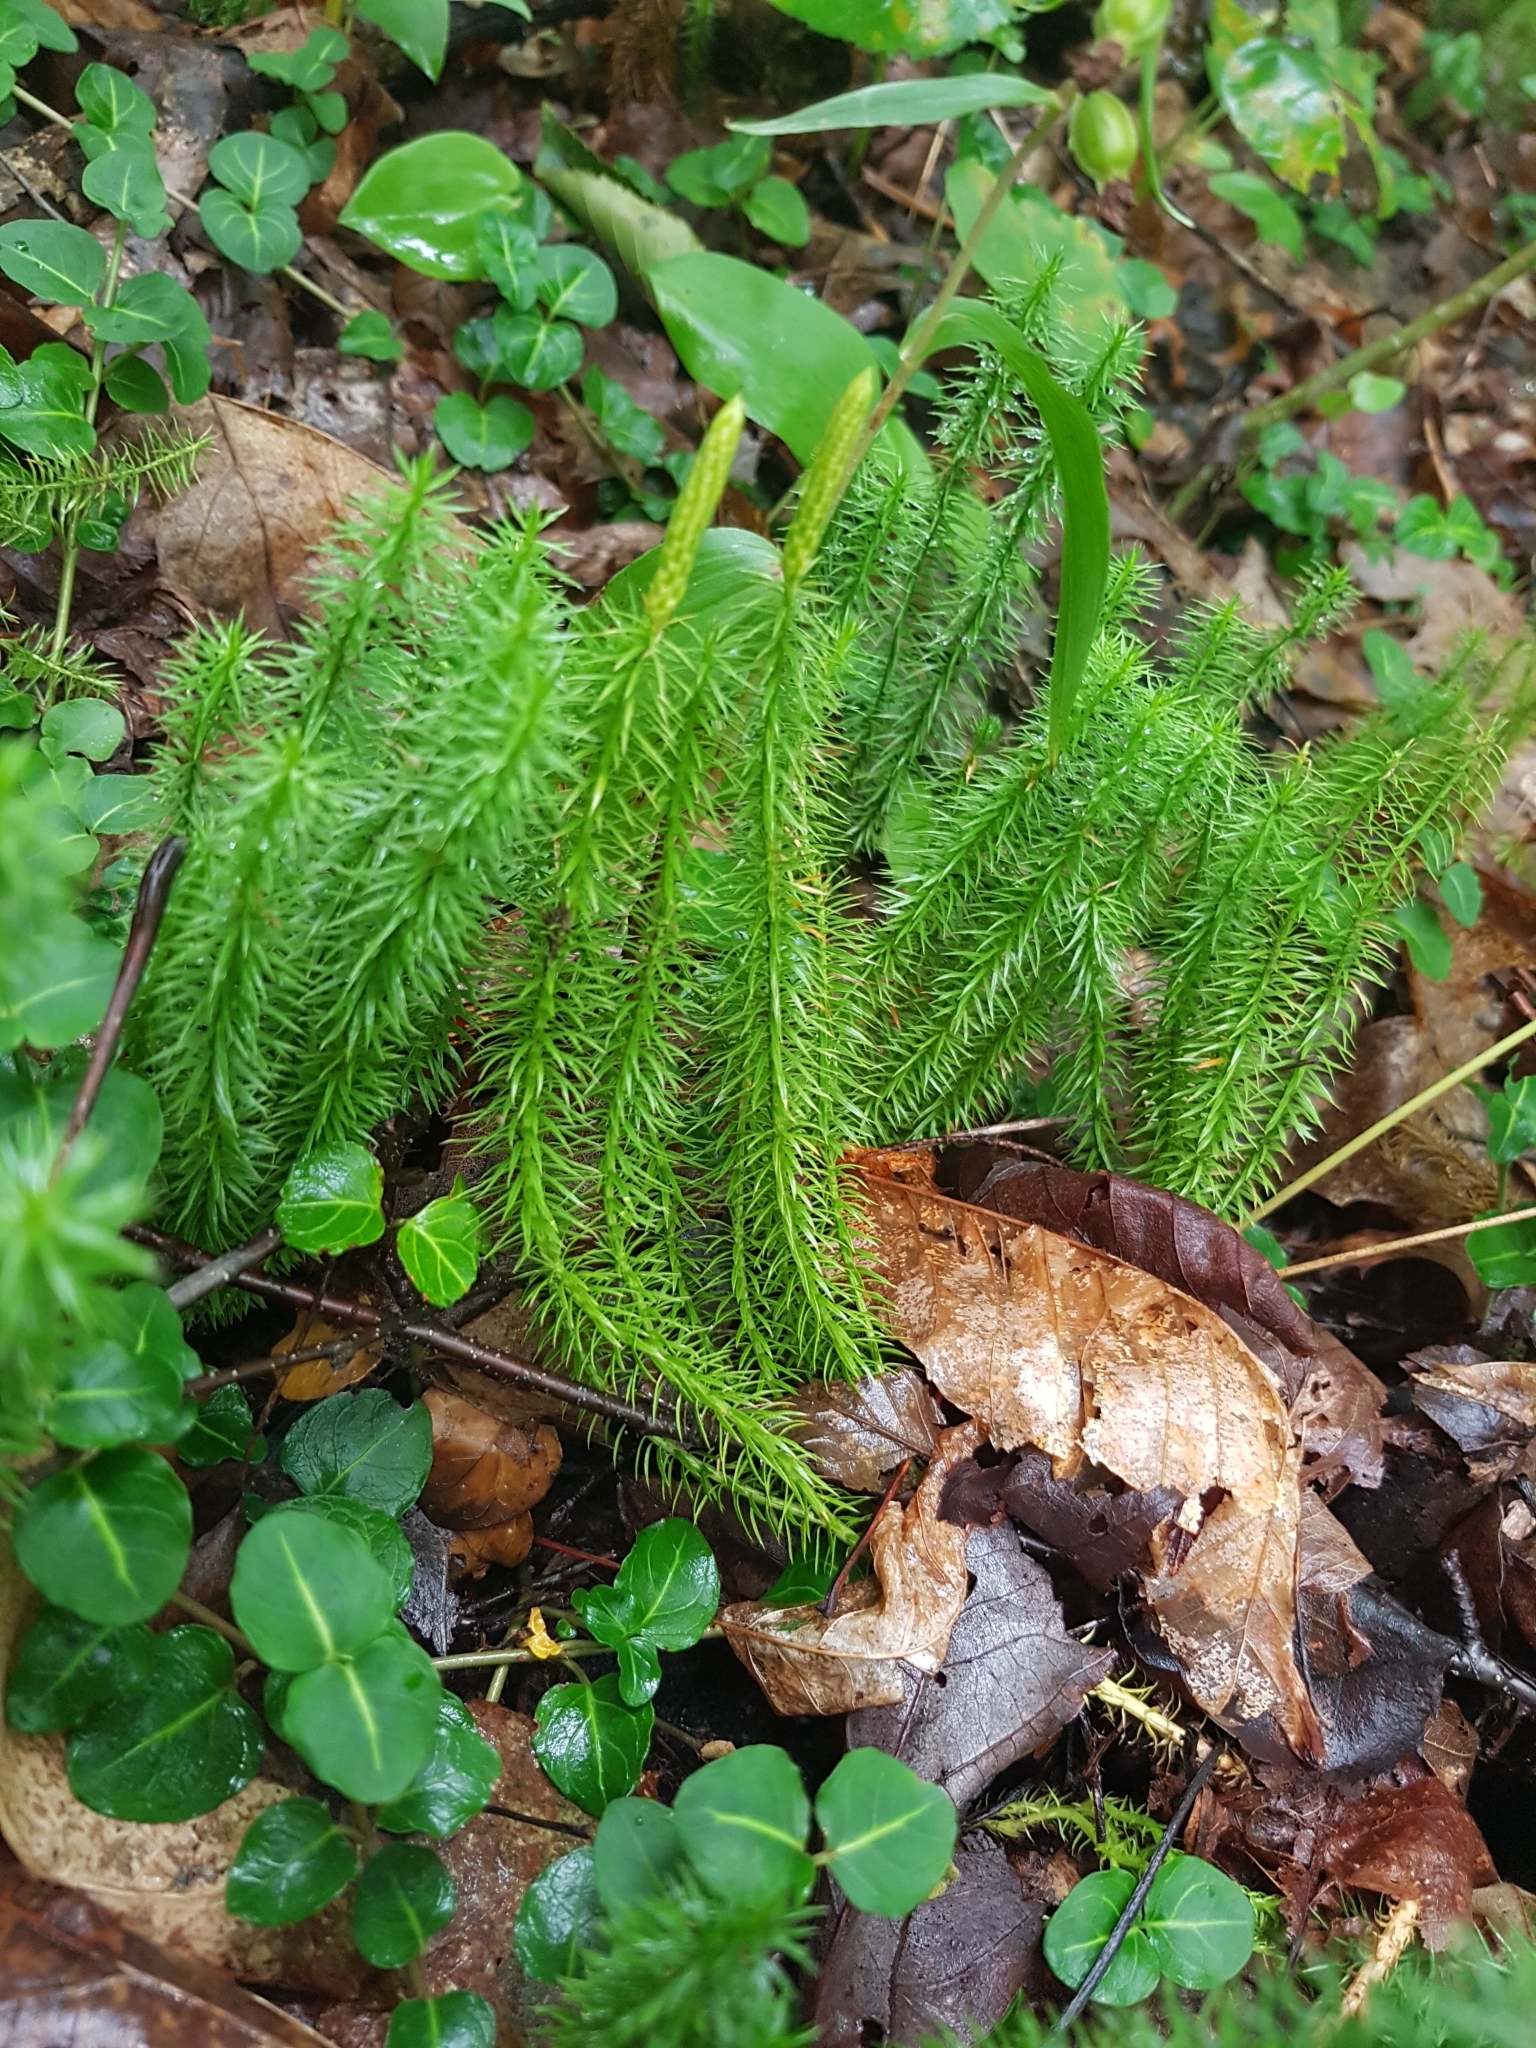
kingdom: Plantae
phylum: Tracheophyta
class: Lycopodiopsida
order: Lycopodiales
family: Lycopodiaceae
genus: Spinulum
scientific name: Spinulum annotinum
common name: Interrupted club-moss
